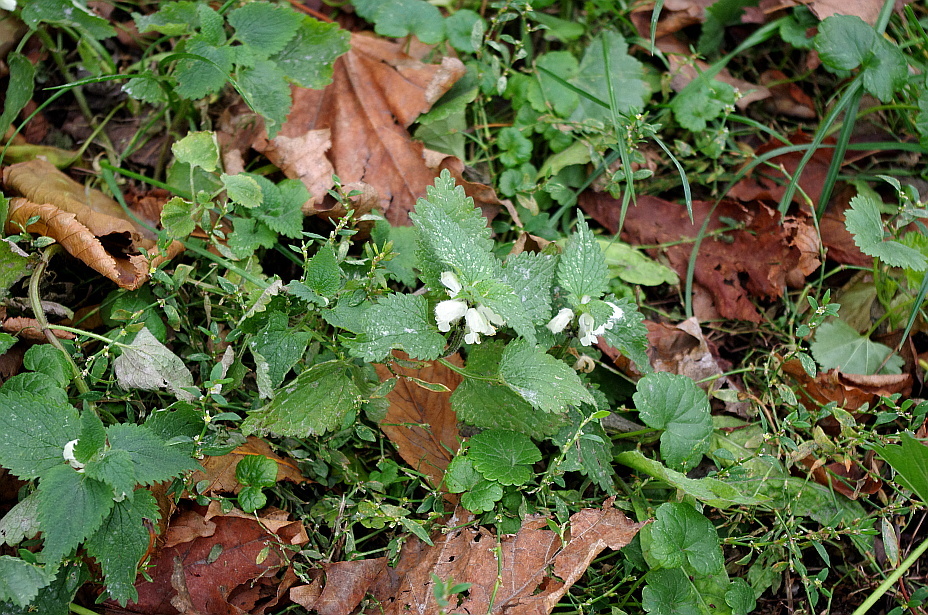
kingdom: Plantae
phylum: Tracheophyta
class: Magnoliopsida
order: Lamiales
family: Lamiaceae
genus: Lamium
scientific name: Lamium album
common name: White dead-nettle
